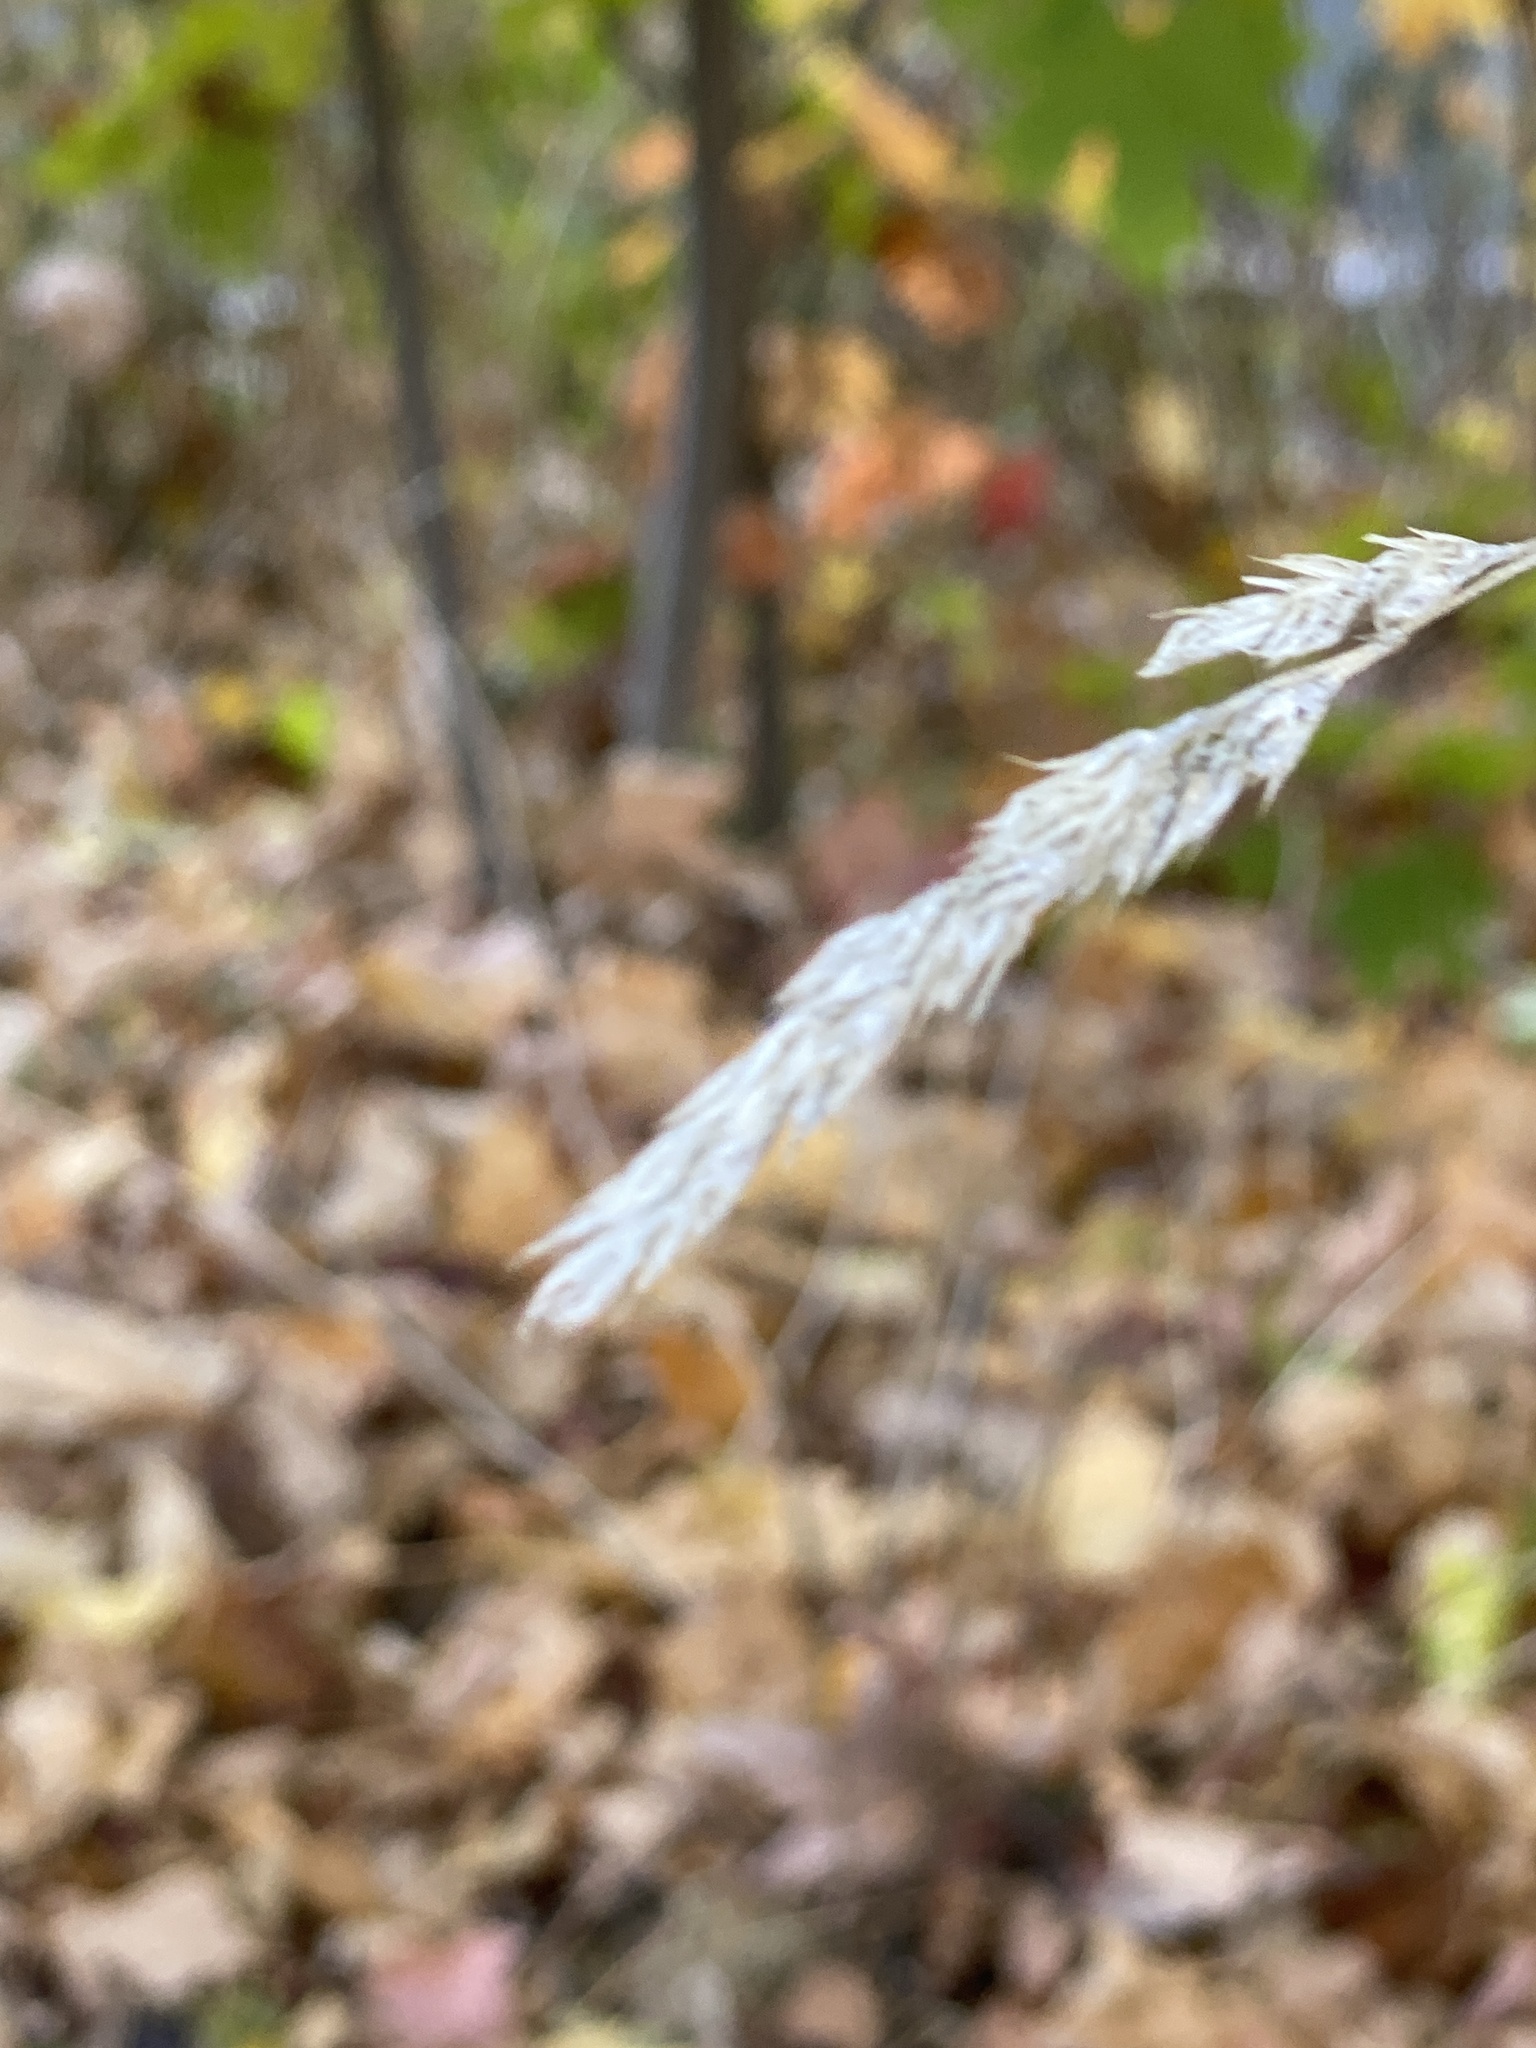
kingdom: Plantae
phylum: Tracheophyta
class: Liliopsida
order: Poales
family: Poaceae
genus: Dactylis
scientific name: Dactylis glomerata
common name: Orchardgrass
